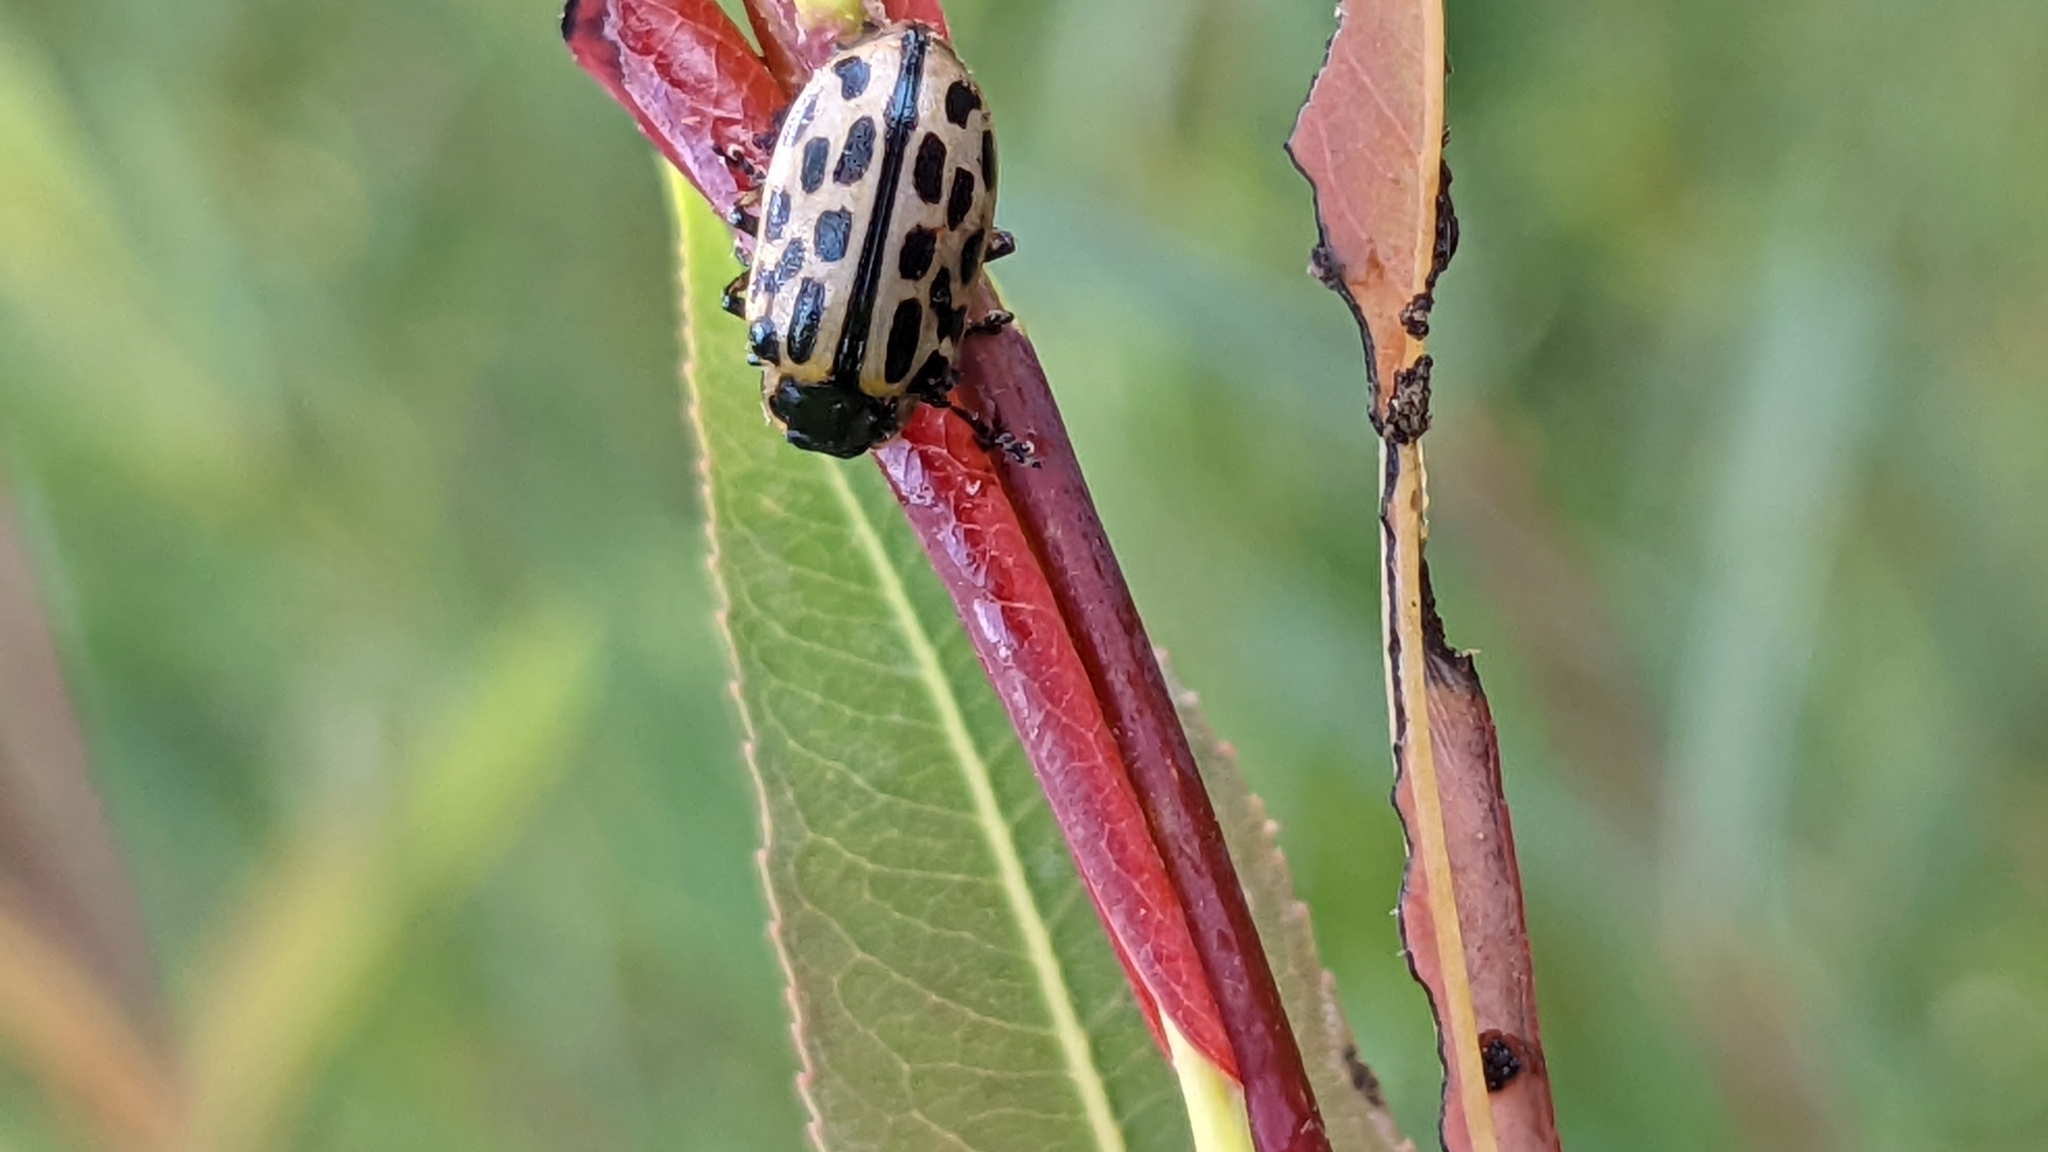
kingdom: Animalia
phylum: Arthropoda
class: Insecta
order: Coleoptera
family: Chrysomelidae
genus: Chrysomela
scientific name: Chrysomela vigintipunctata
